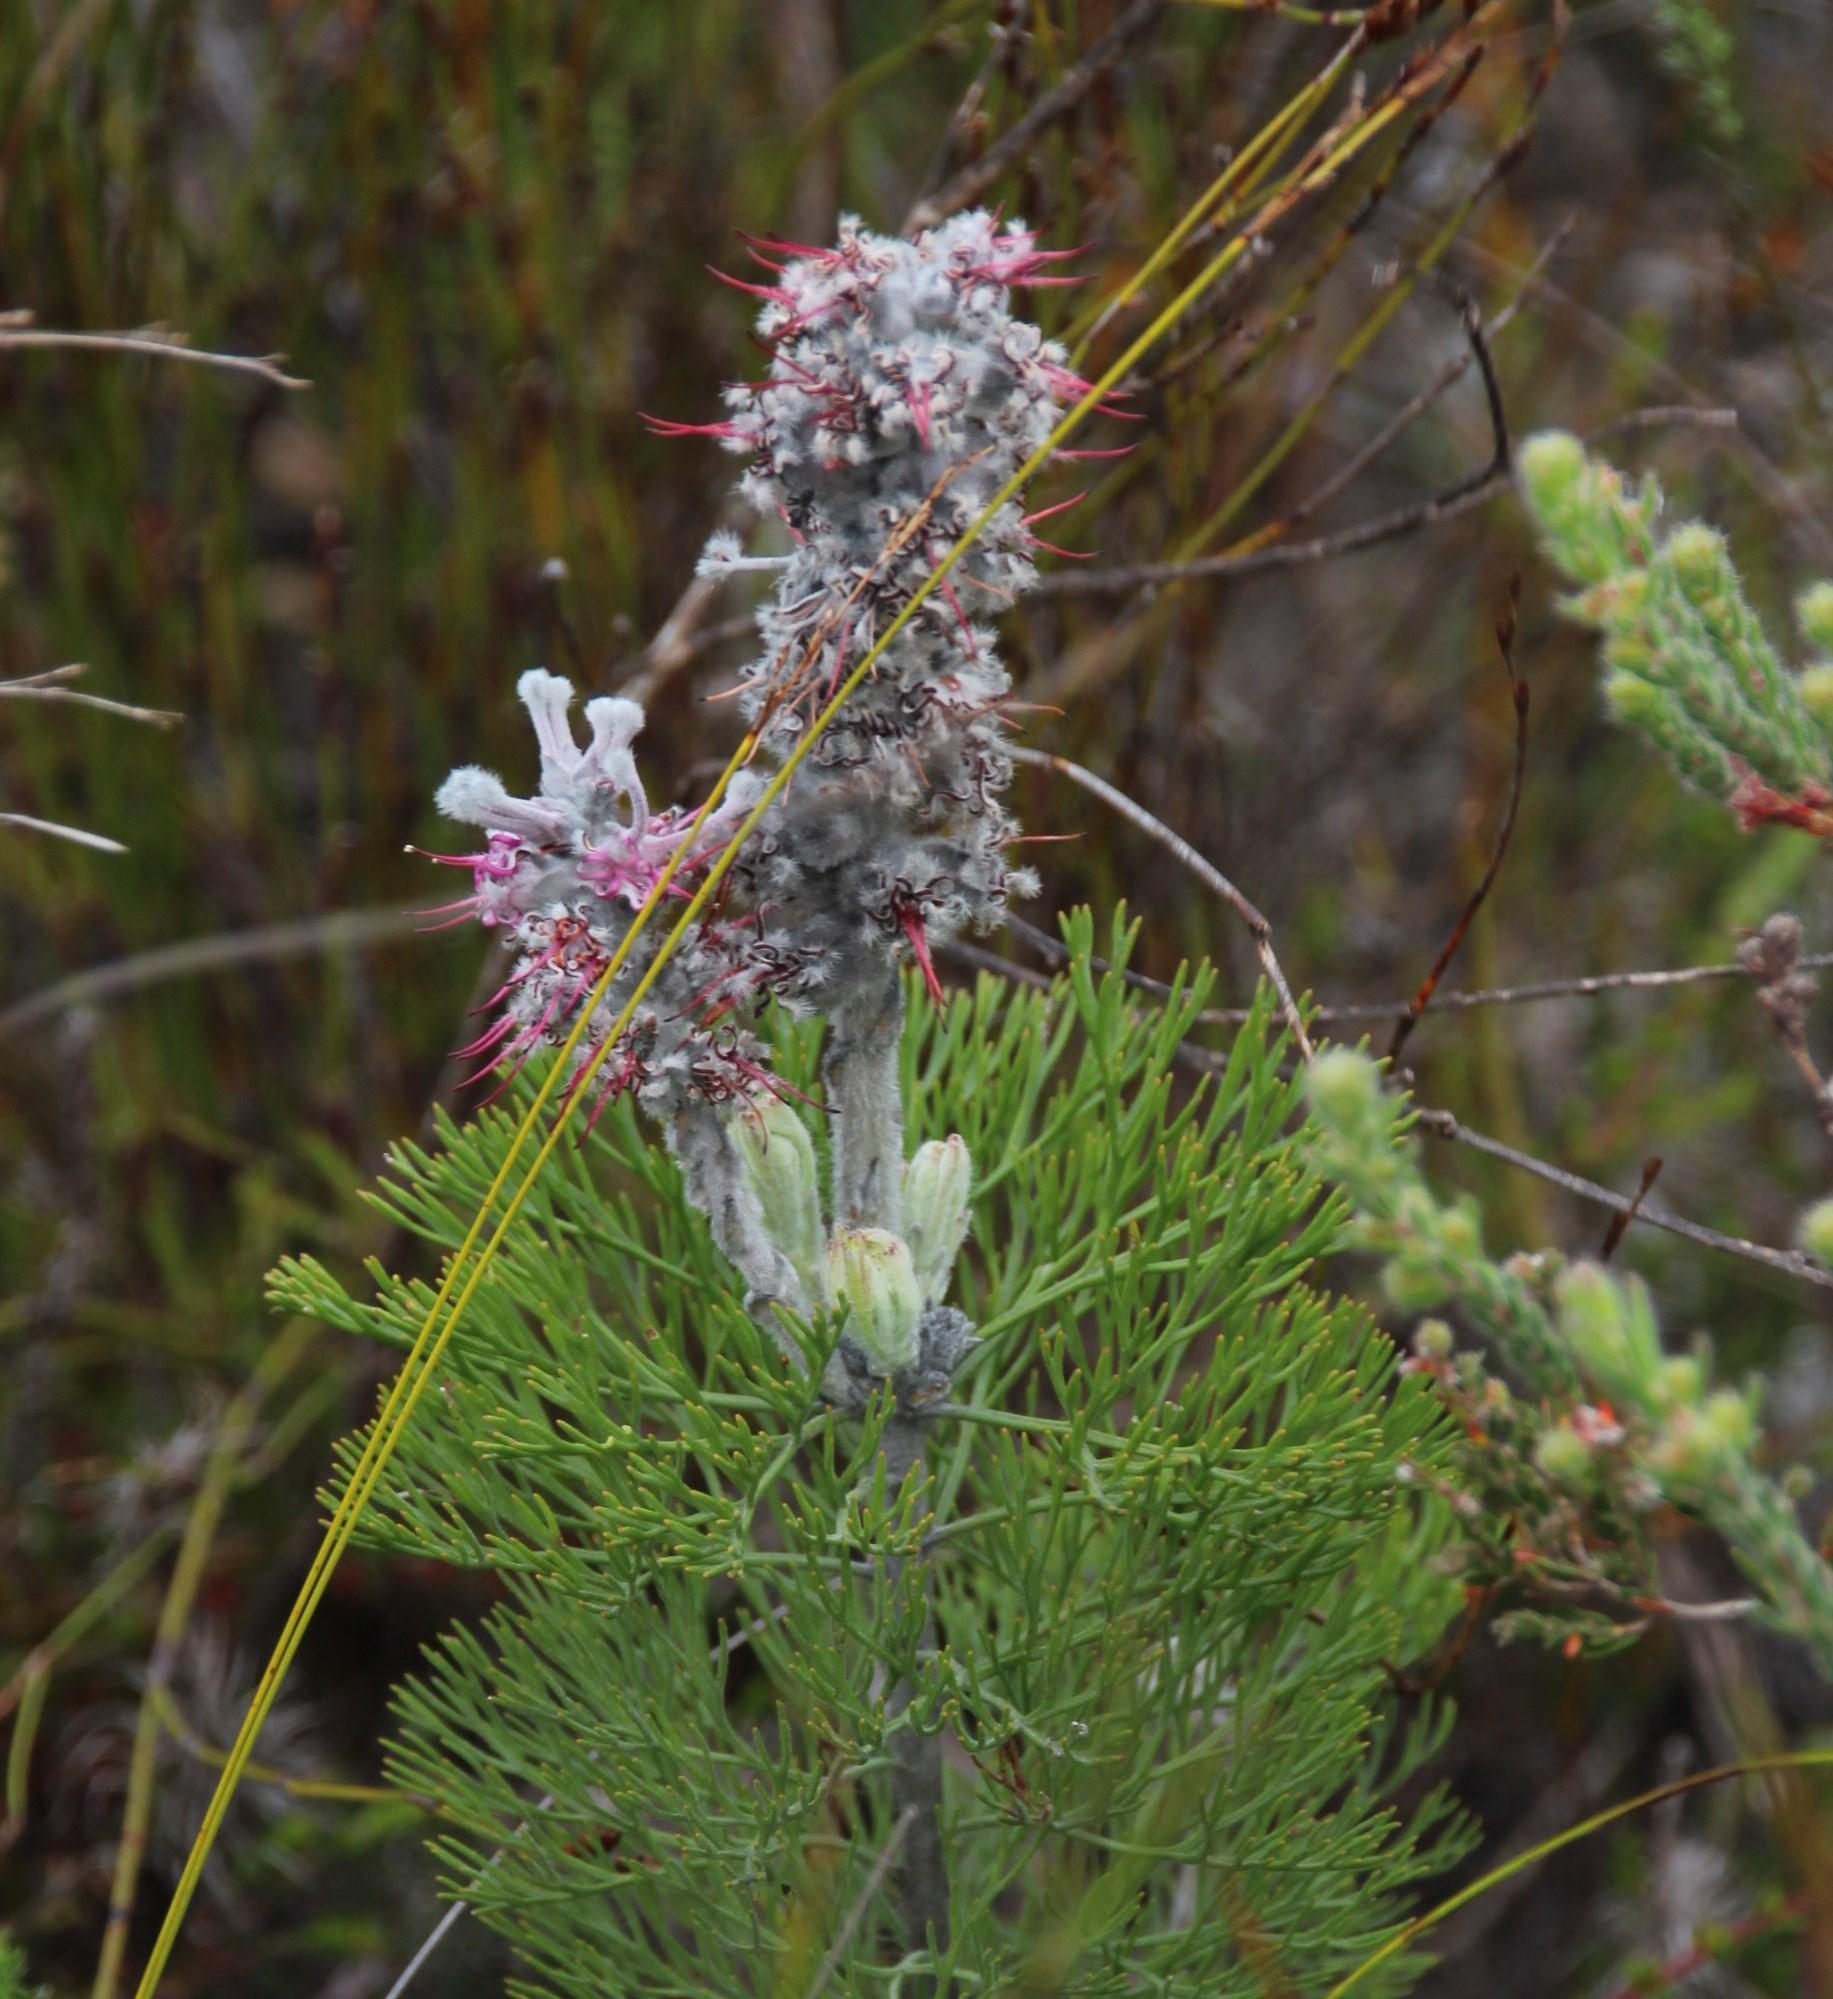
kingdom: Plantae
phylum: Tracheophyta
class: Magnoliopsida
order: Proteales
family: Proteaceae
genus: Paranomus
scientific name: Paranomus bolusii
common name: Overberg sceptre
